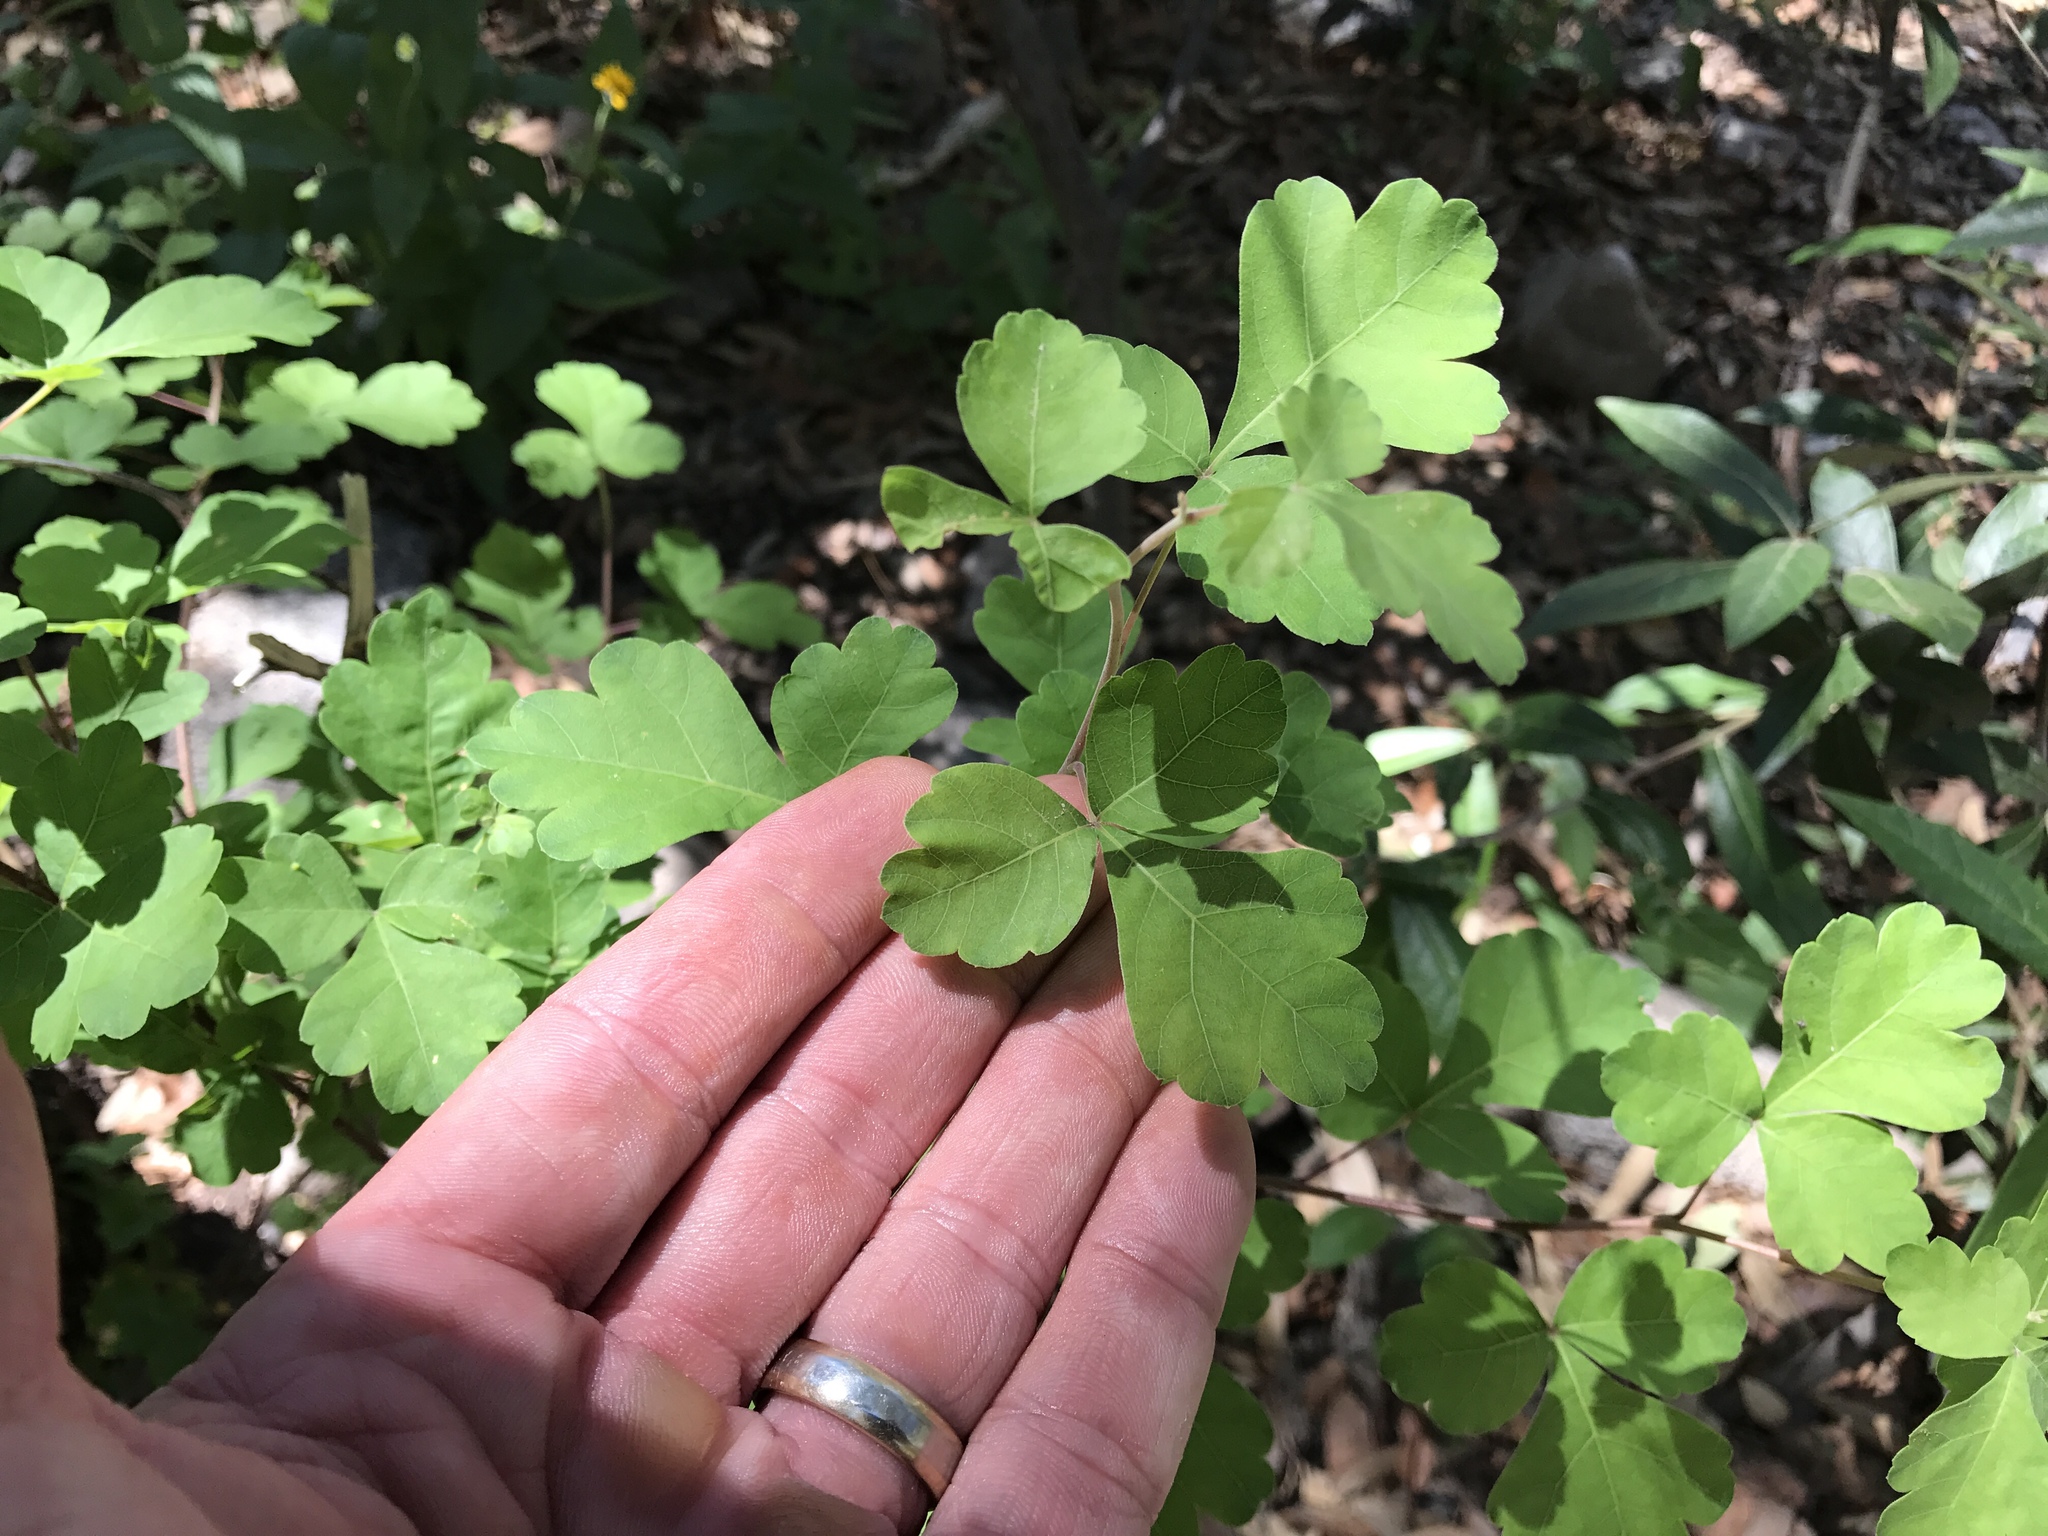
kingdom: Plantae
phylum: Tracheophyta
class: Magnoliopsida
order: Sapindales
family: Anacardiaceae
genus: Rhus
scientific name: Rhus aromatica
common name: Aromatic sumac
